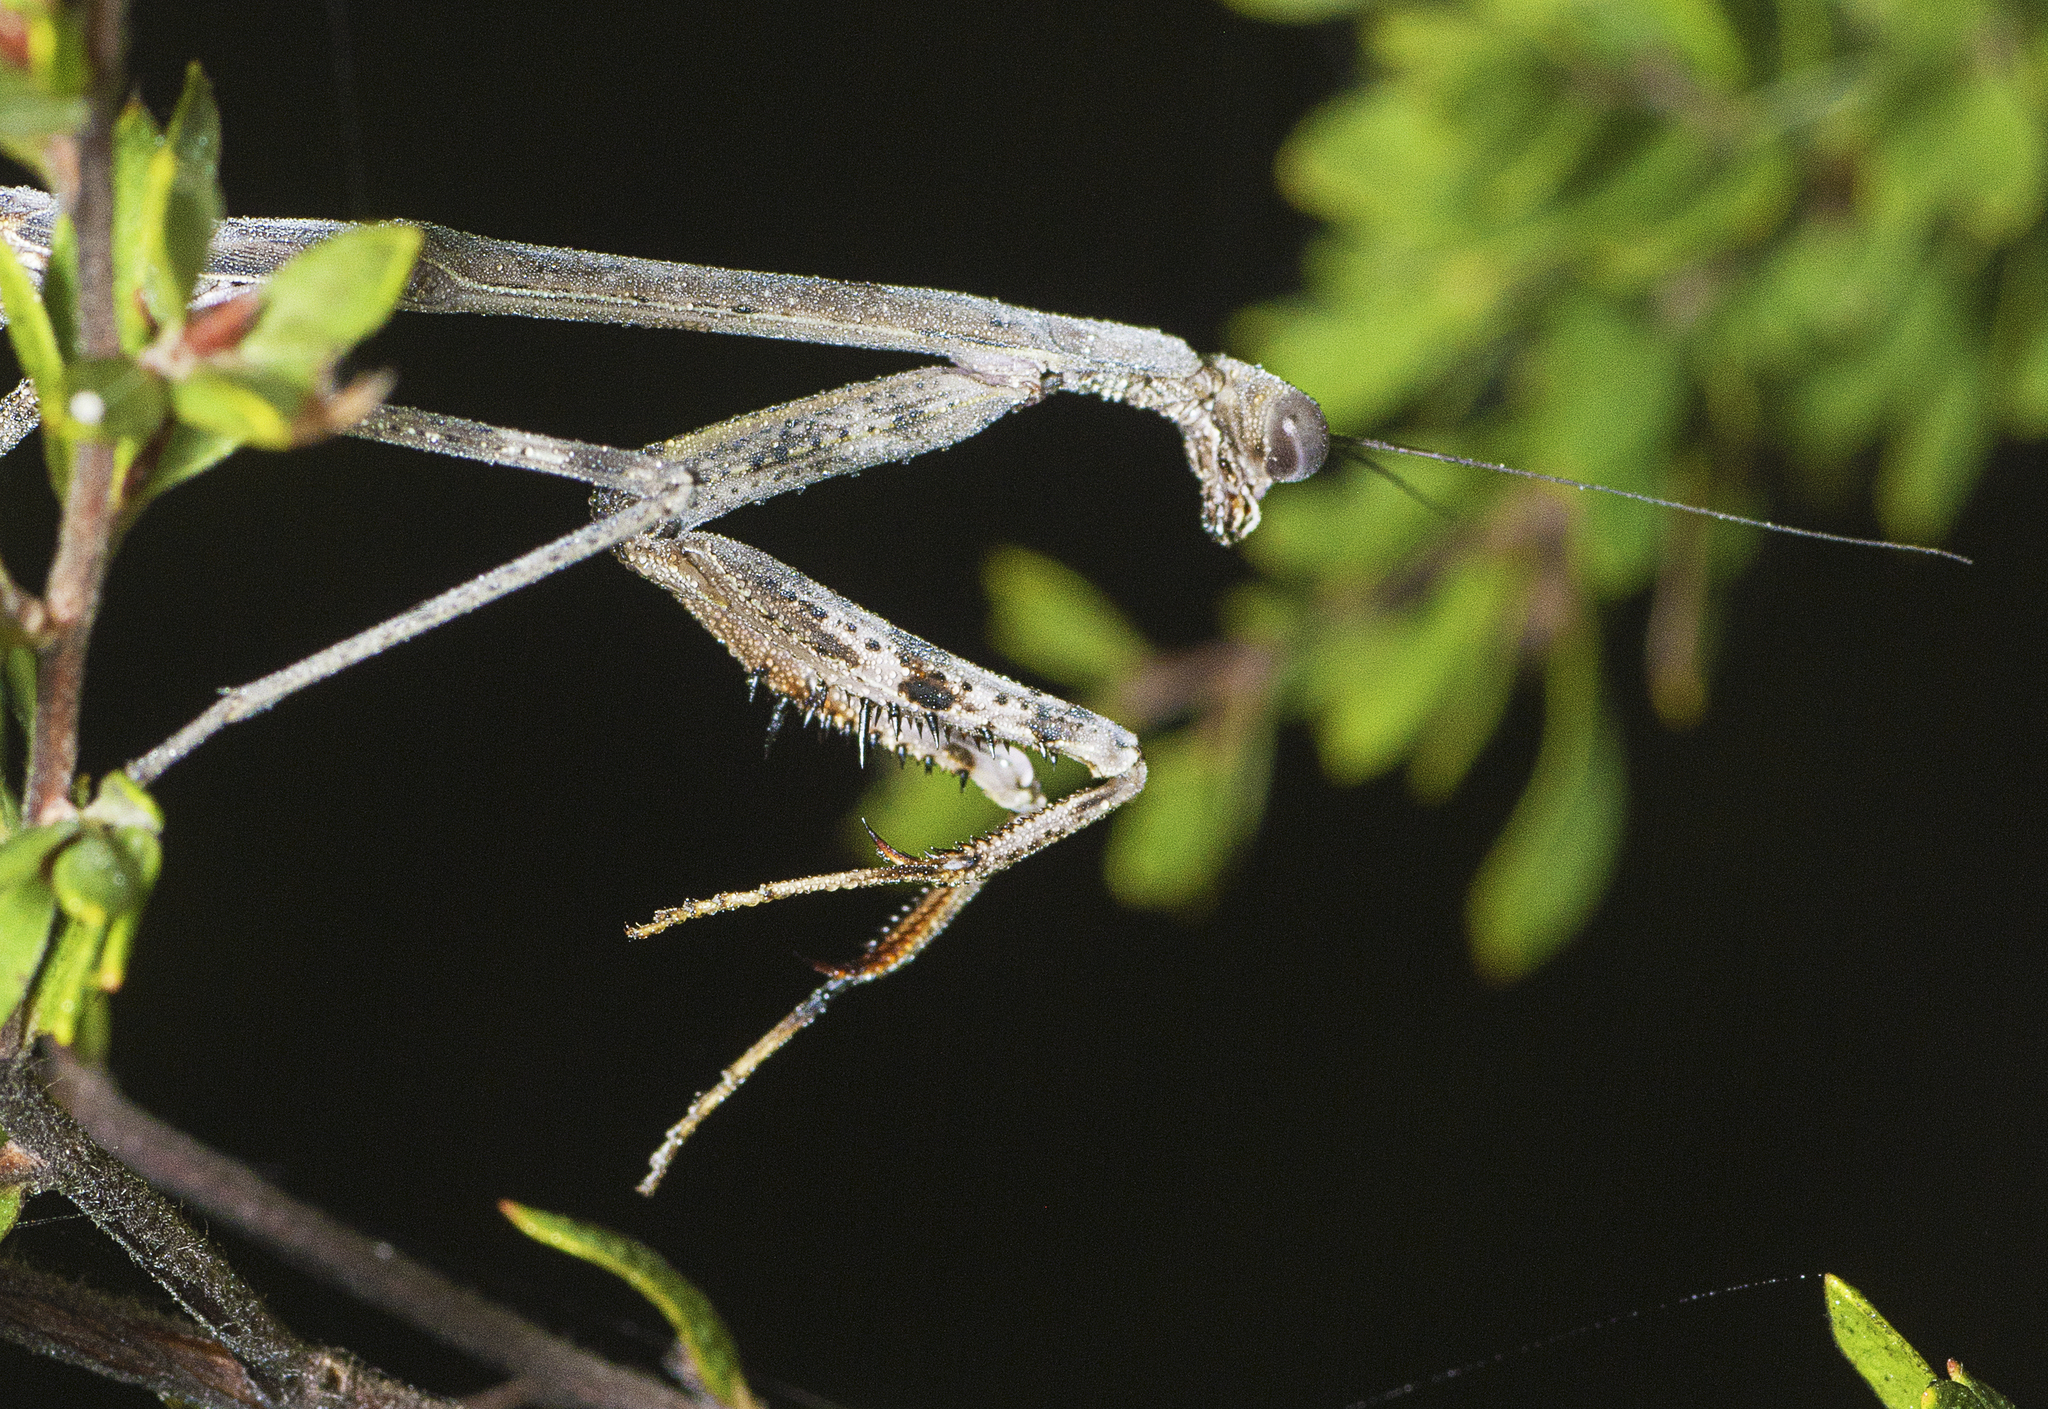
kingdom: Animalia
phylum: Arthropoda
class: Insecta
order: Mantodea
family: Mantidae
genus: Archimantis
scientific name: Archimantis latistyla
